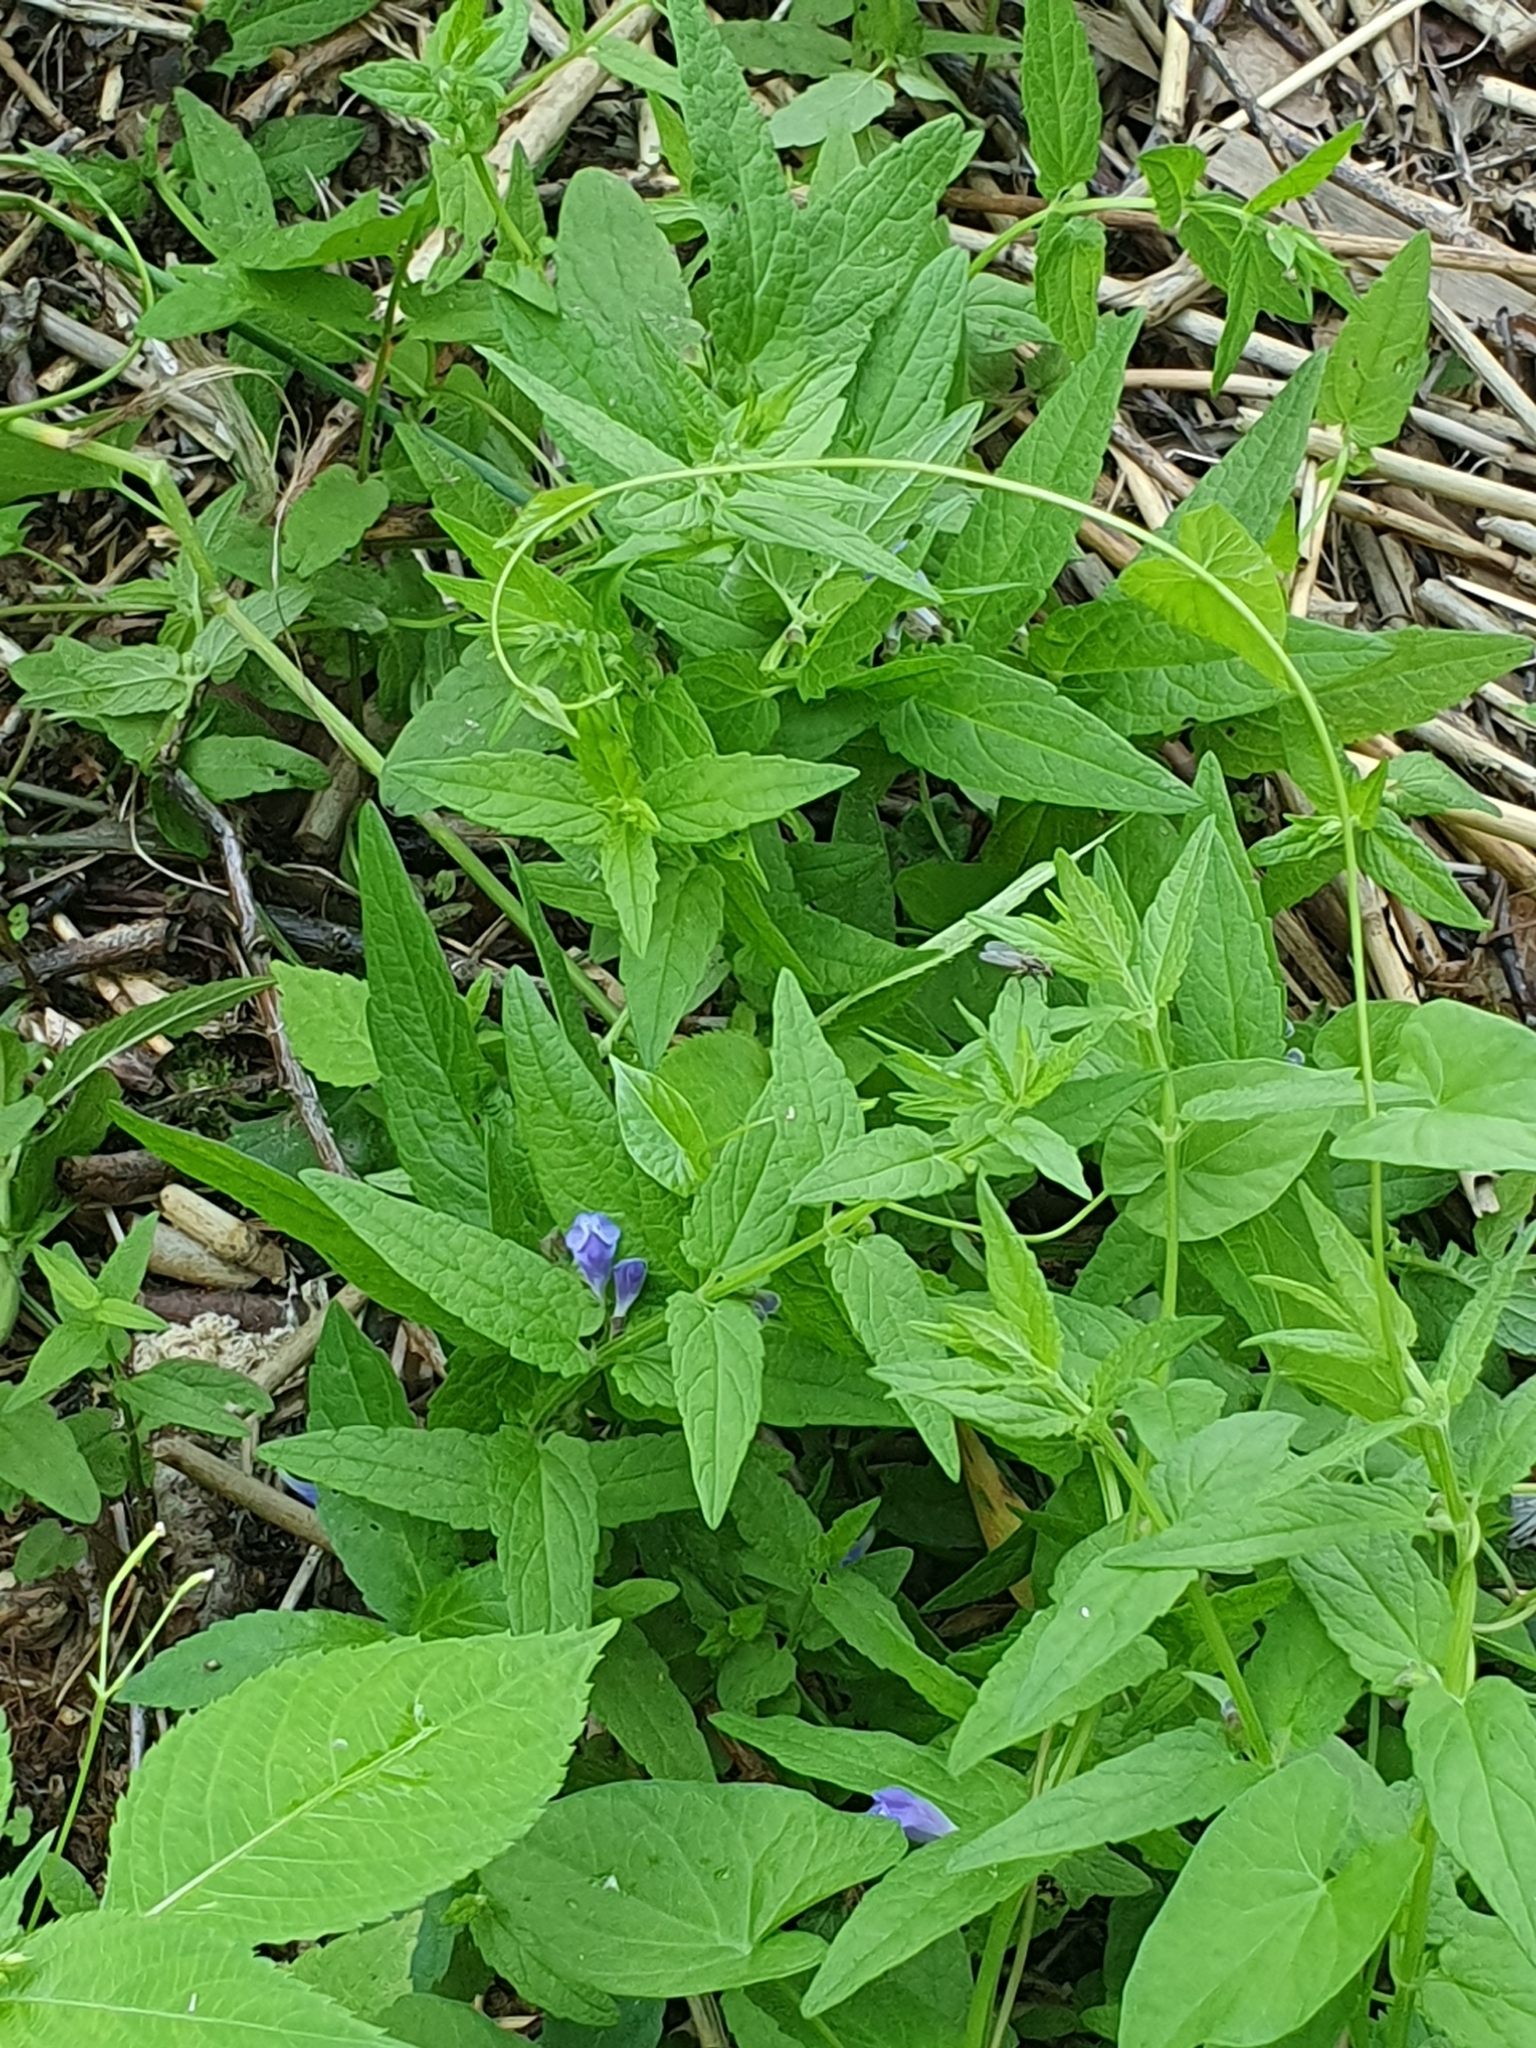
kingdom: Plantae
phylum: Tracheophyta
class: Magnoliopsida
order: Lamiales
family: Lamiaceae
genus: Scutellaria
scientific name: Scutellaria galericulata
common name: Skullcap
